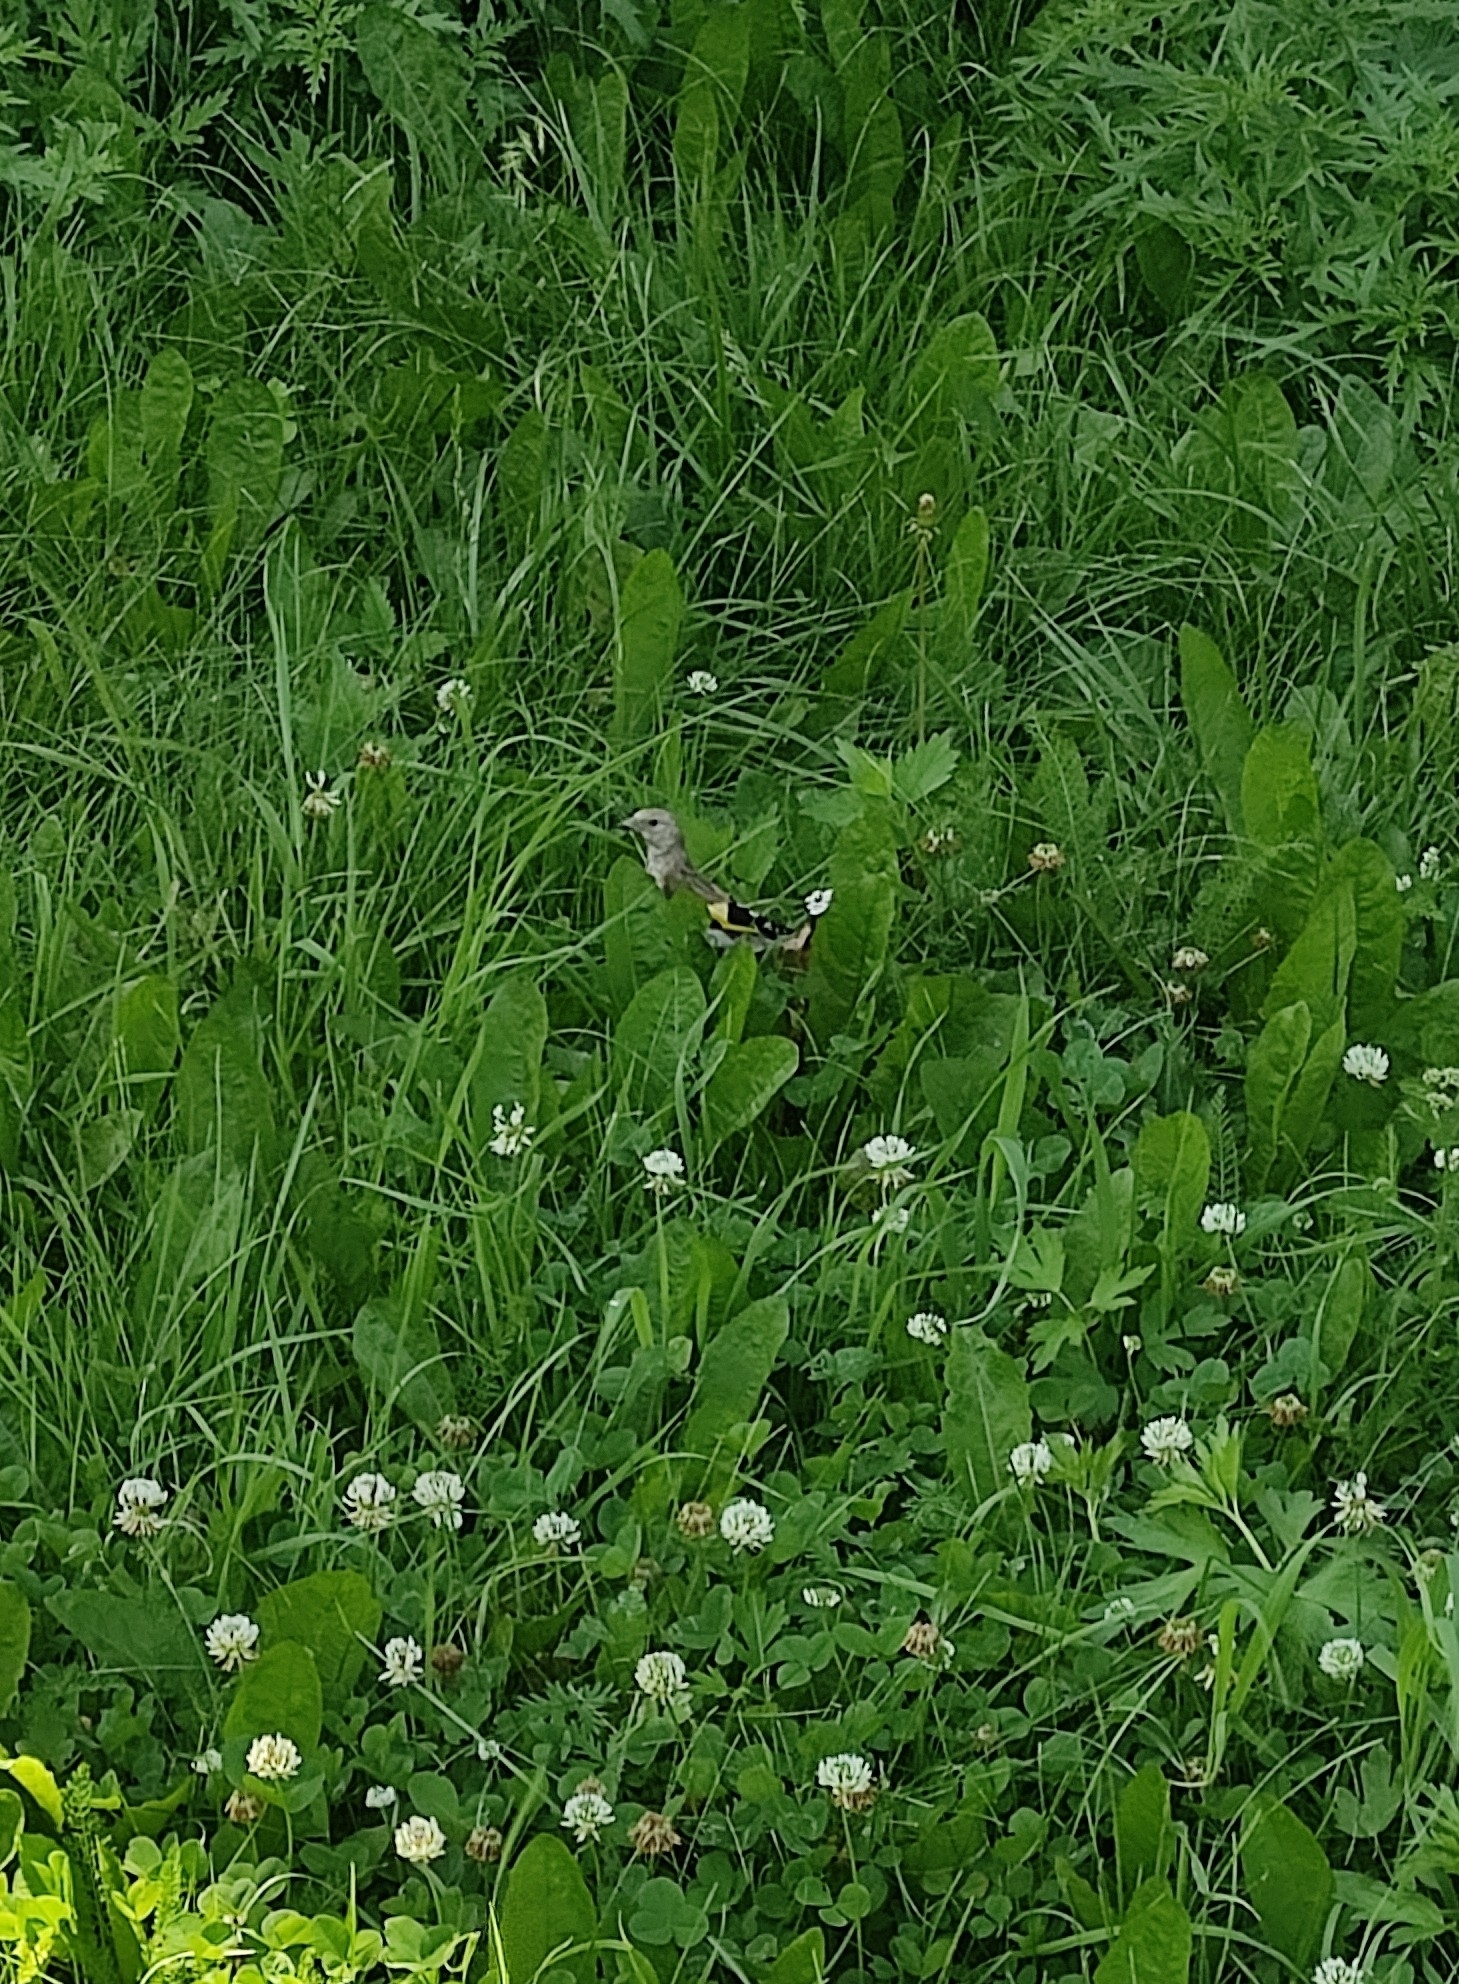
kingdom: Animalia
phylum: Chordata
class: Aves
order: Passeriformes
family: Fringillidae
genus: Carduelis
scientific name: Carduelis carduelis
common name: European goldfinch
